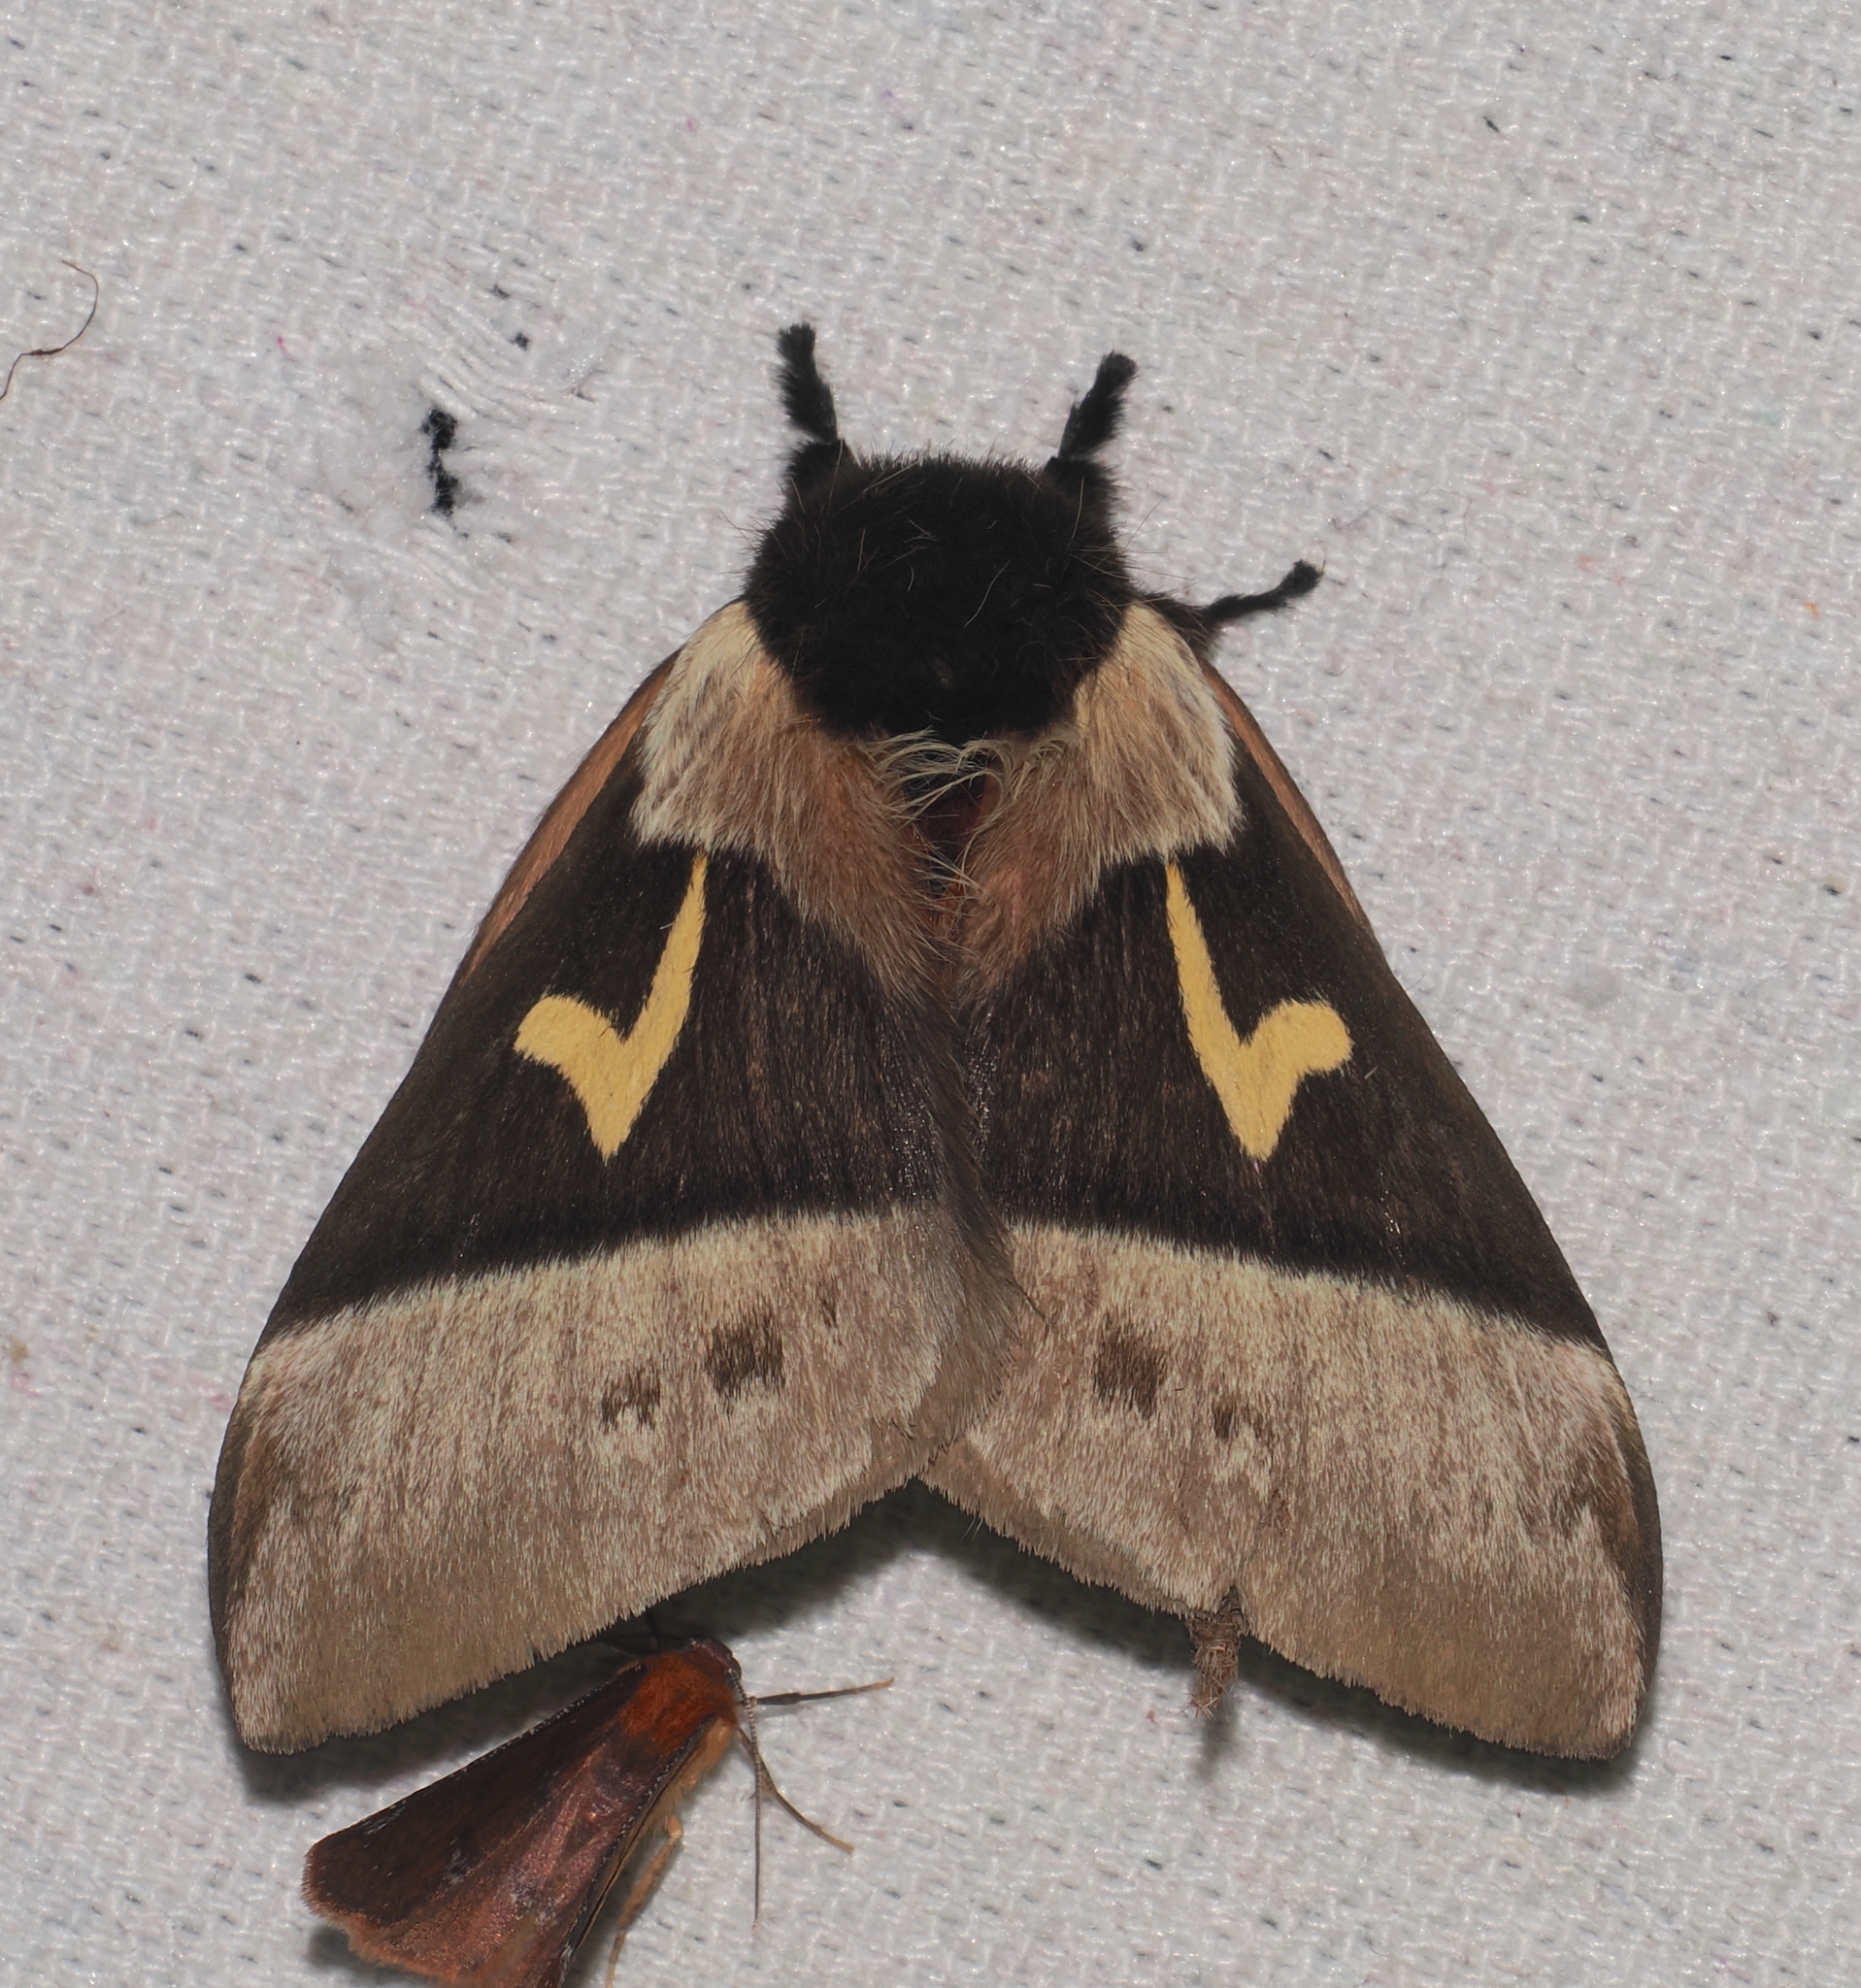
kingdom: Animalia
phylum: Arthropoda
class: Insecta
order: Lepidoptera
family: Saturniidae
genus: Dirphia
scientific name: Dirphia tolimafurca
